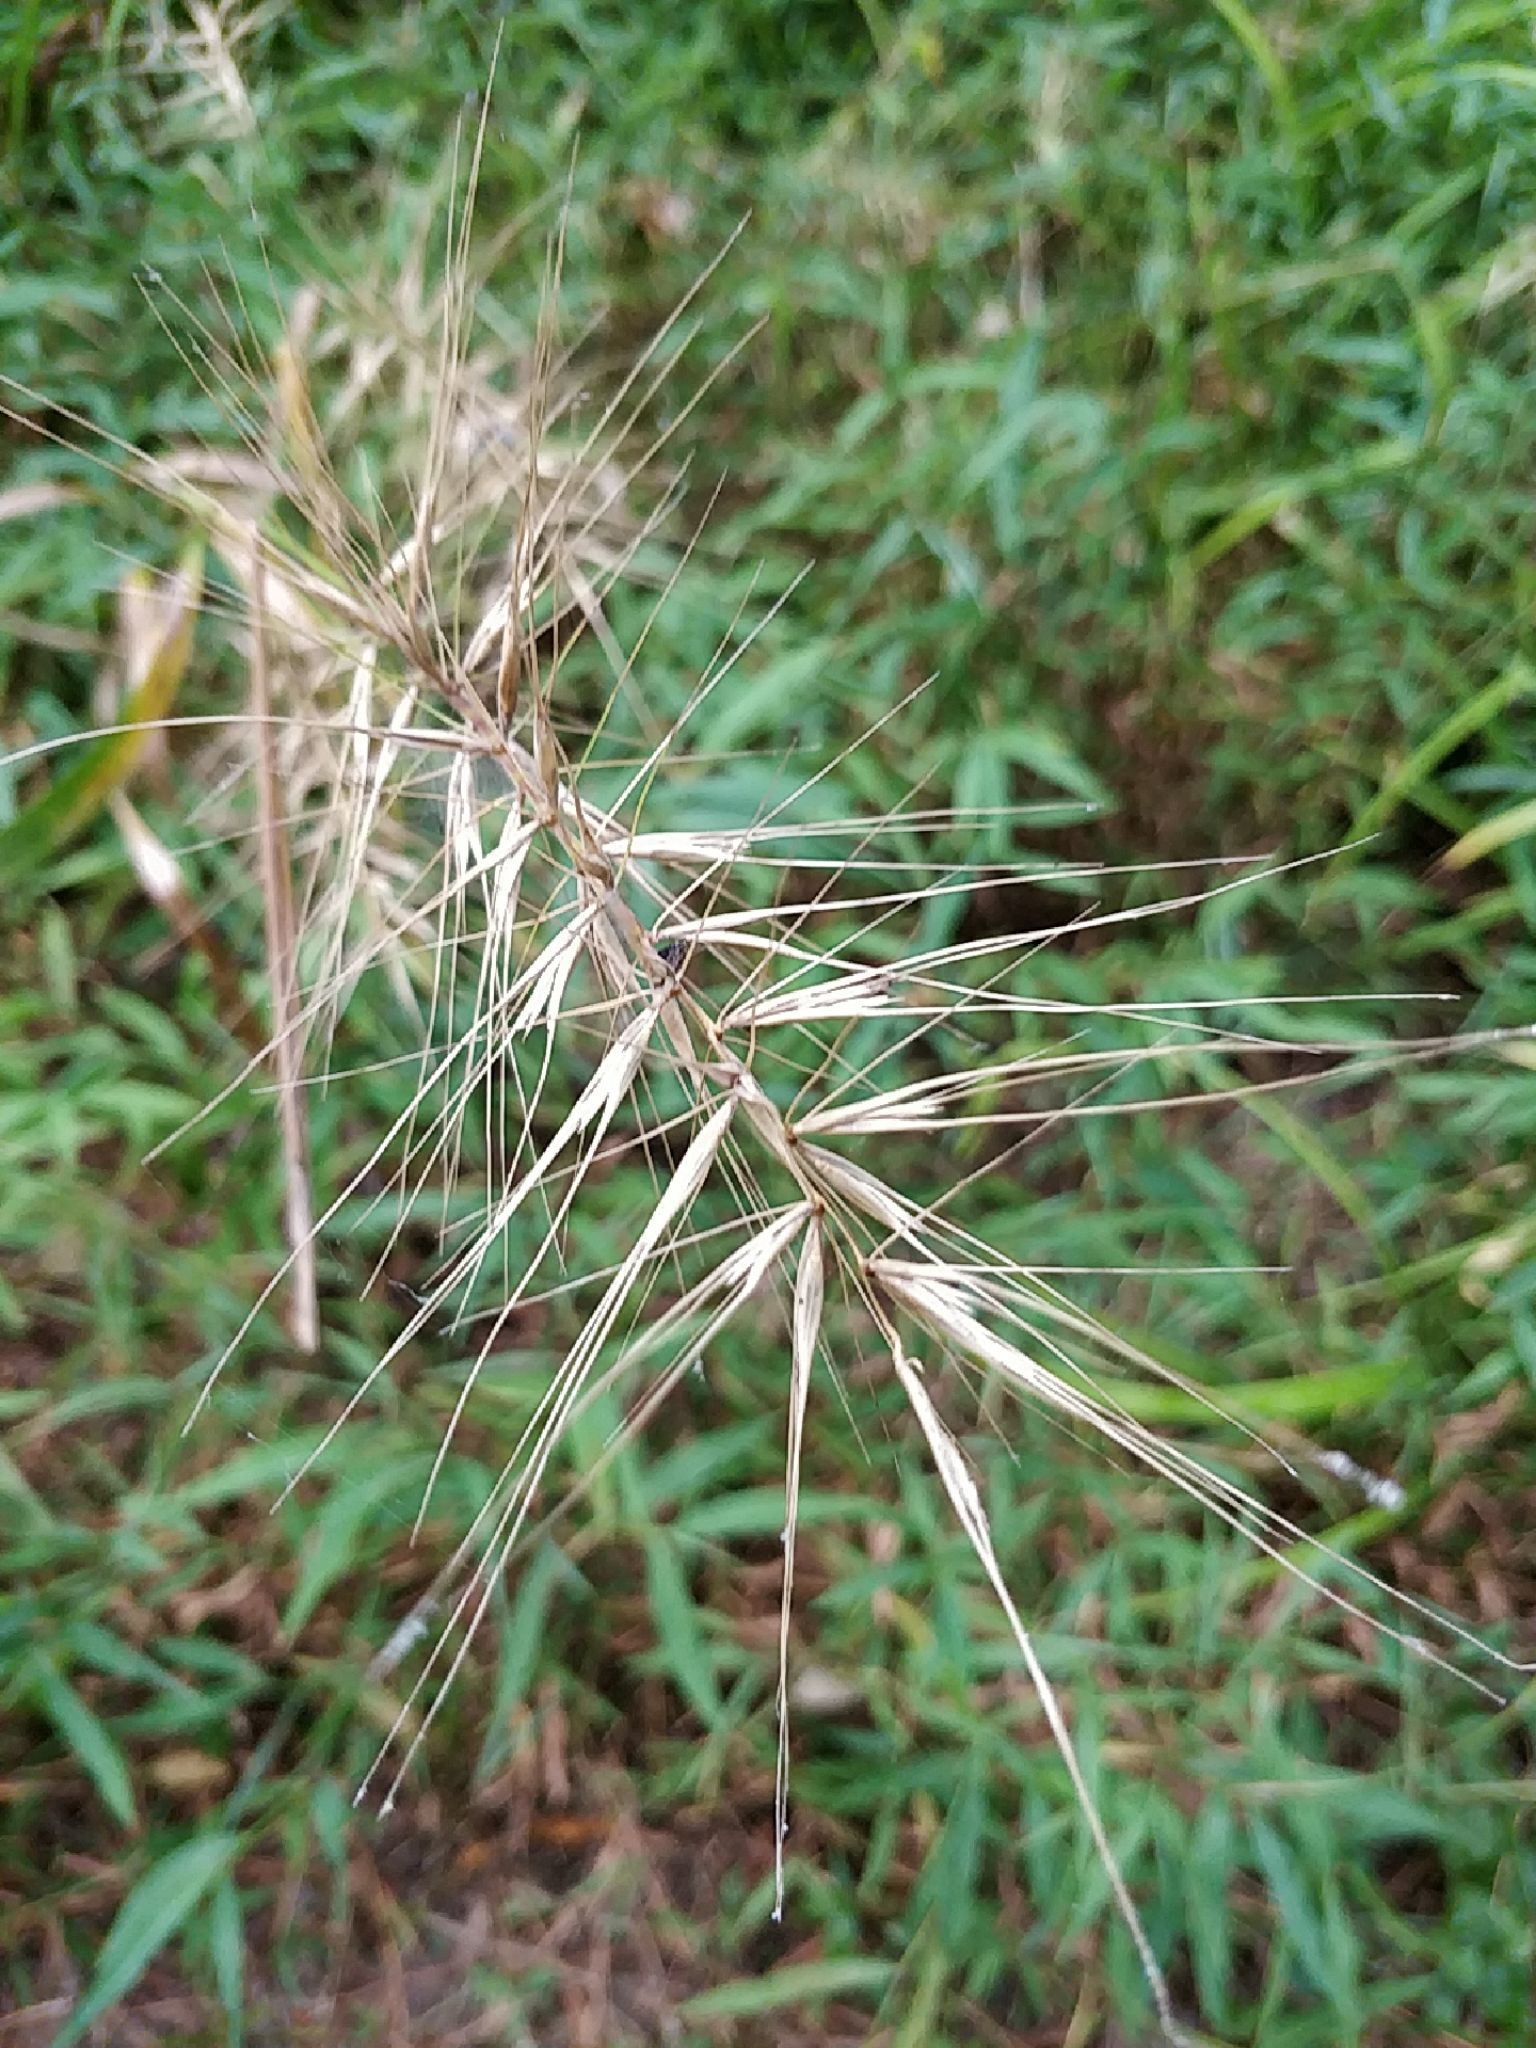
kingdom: Plantae
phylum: Tracheophyta
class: Liliopsida
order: Poales
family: Poaceae
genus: Elymus
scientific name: Elymus hystrix
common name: Bottlebrush grass
